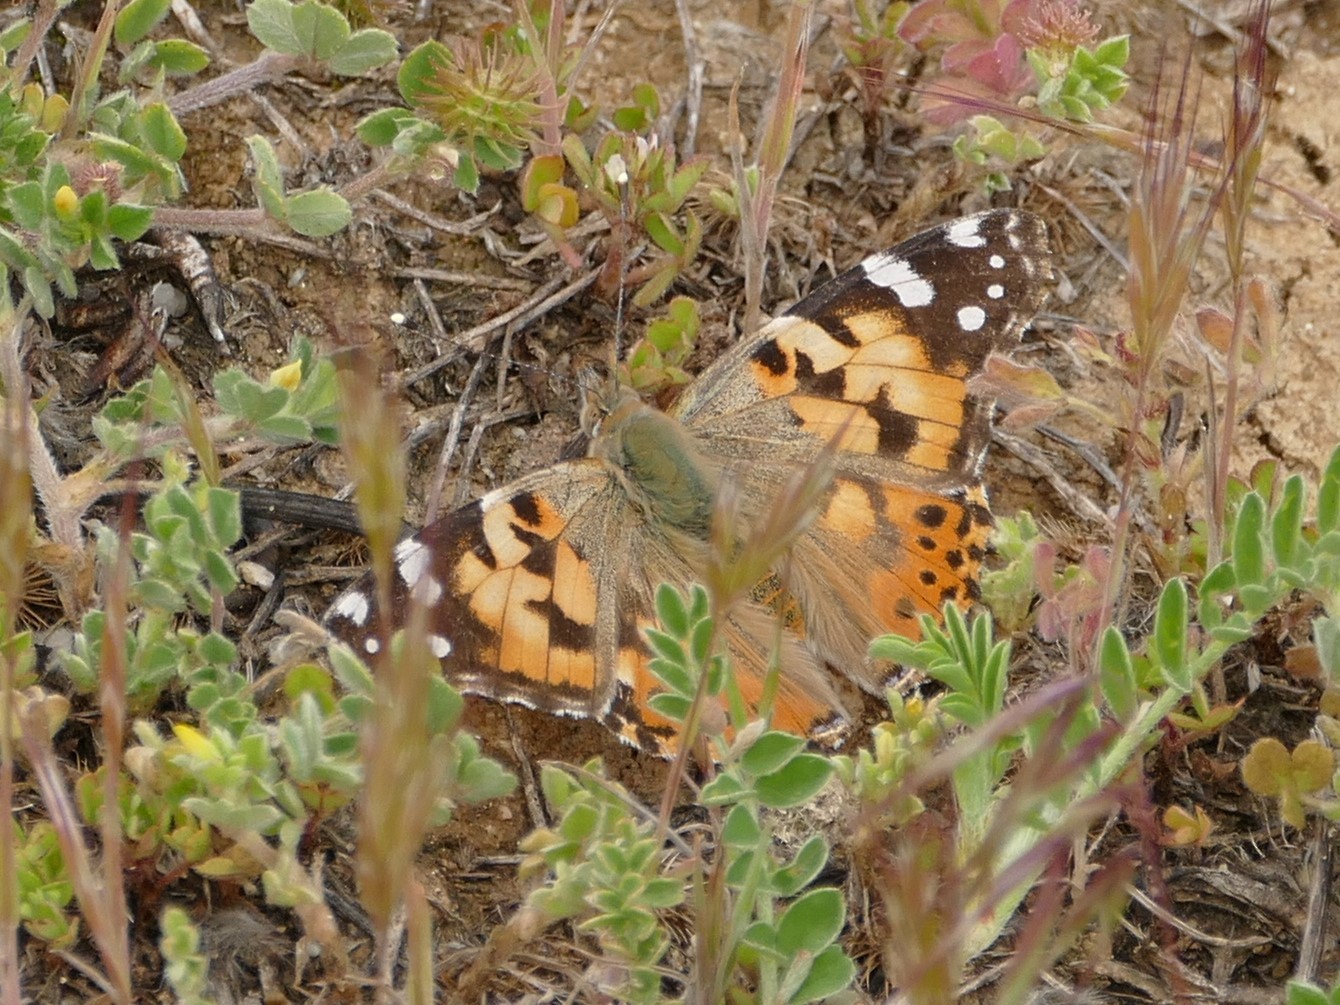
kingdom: Animalia
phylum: Arthropoda
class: Insecta
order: Lepidoptera
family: Nymphalidae
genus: Vanessa
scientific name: Vanessa cardui
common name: Painted lady
